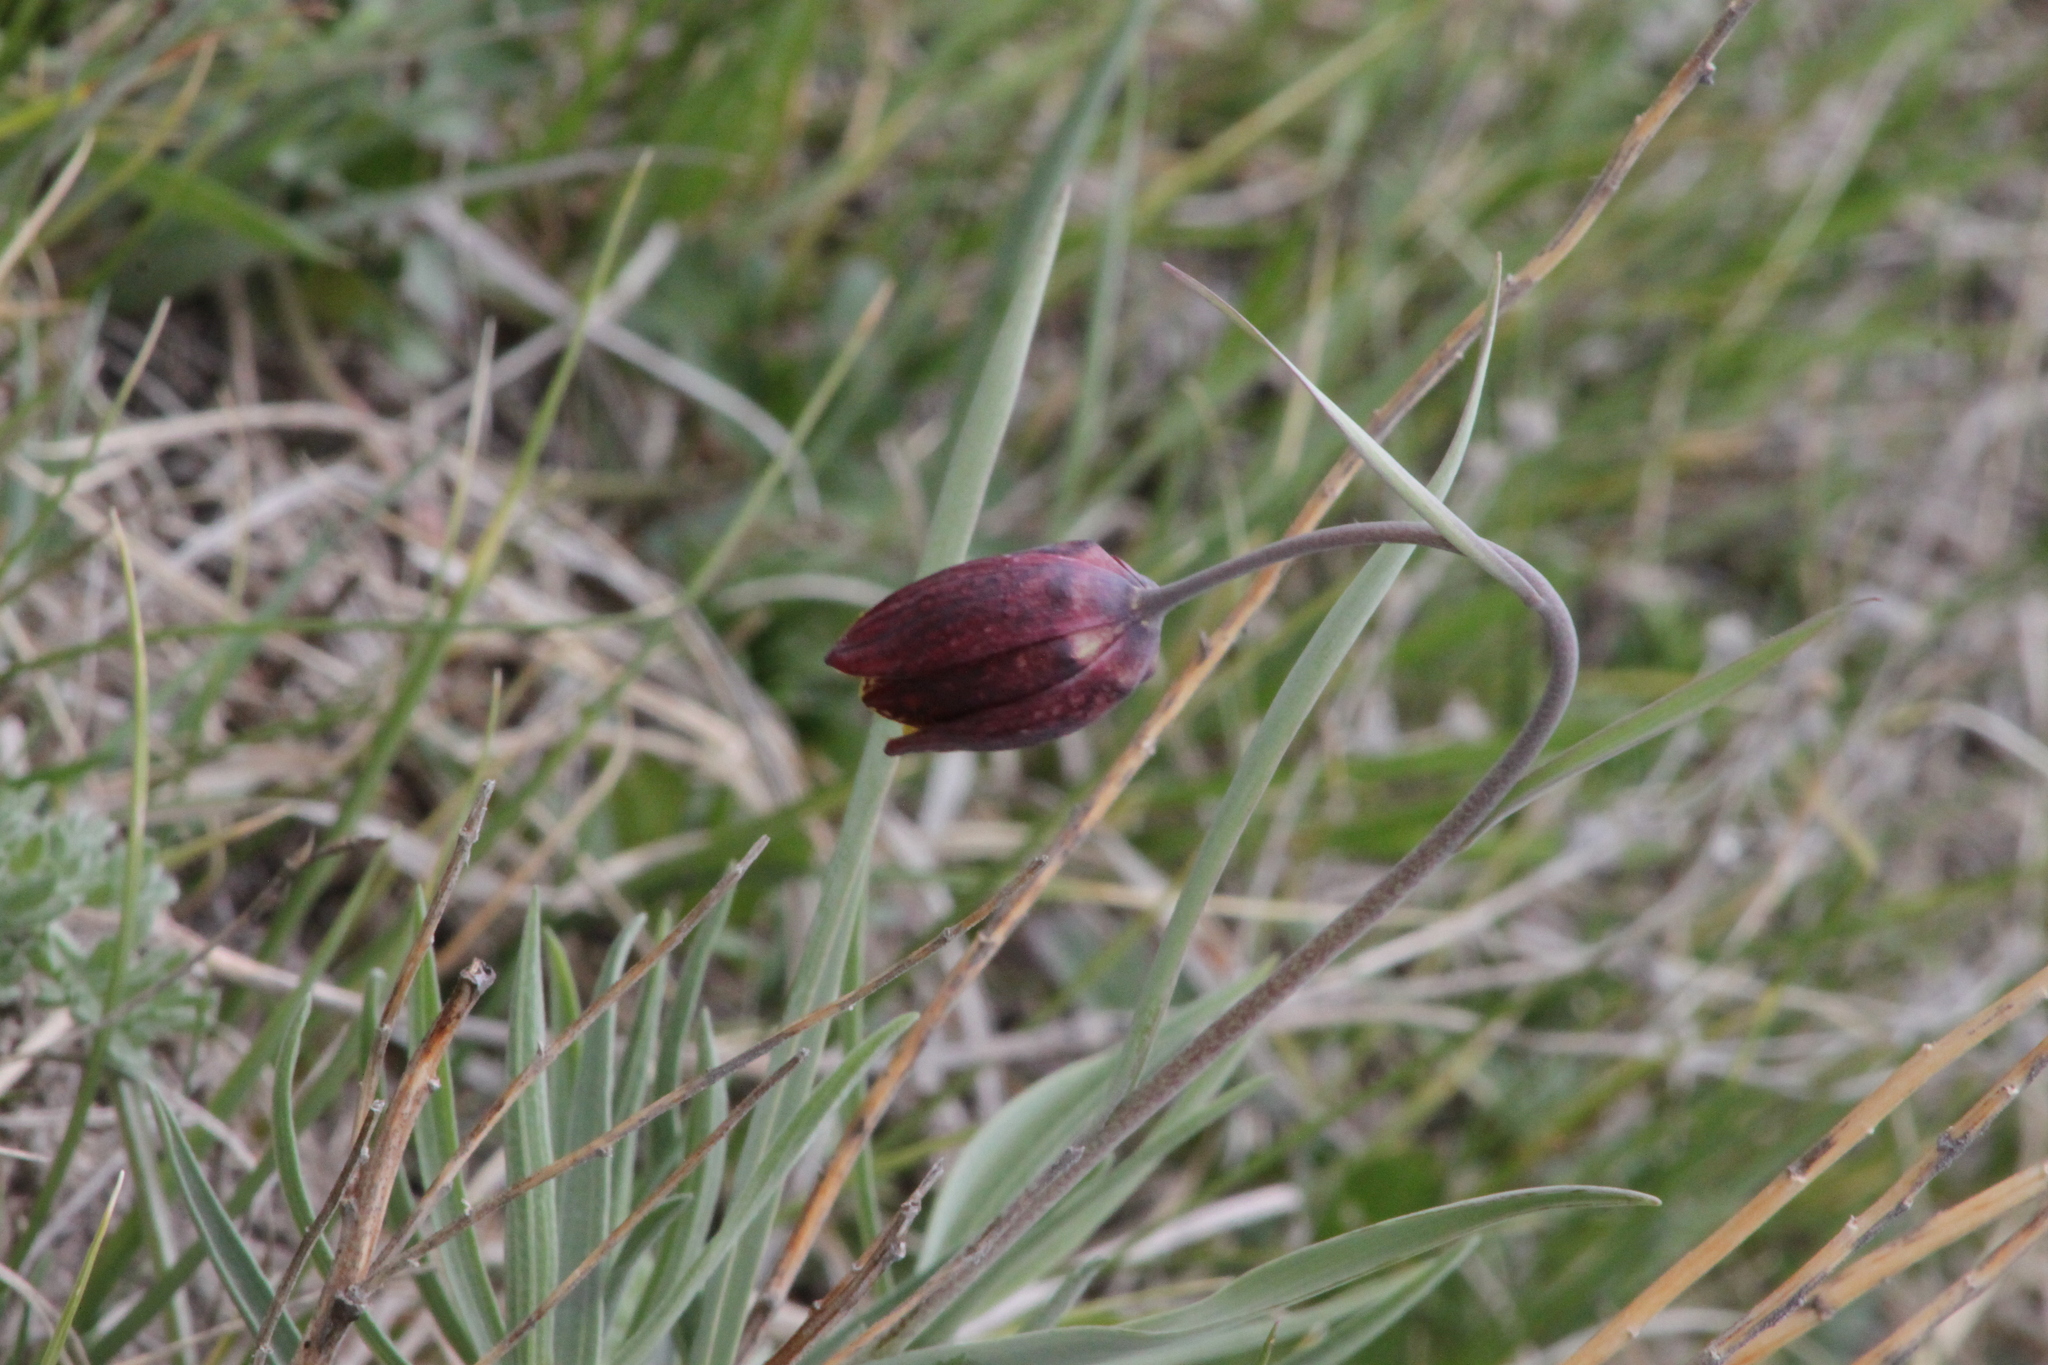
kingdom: Plantae
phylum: Tracheophyta
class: Liliopsida
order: Liliales
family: Liliaceae
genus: Fritillaria
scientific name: Fritillaria meleagroides
